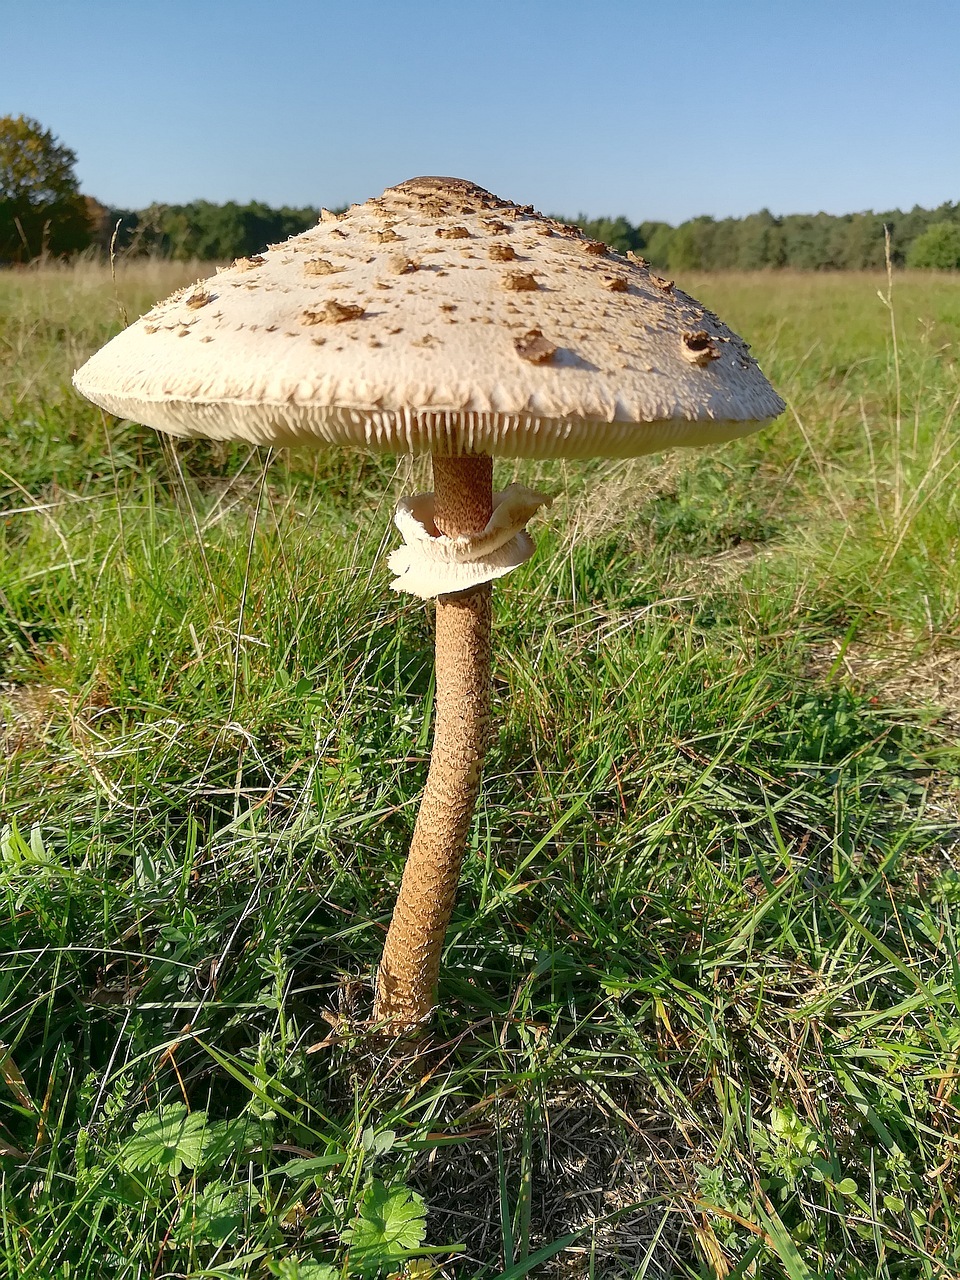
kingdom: Fungi
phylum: Basidiomycota
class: Agaricomycetes
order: Agaricales
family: Agaricaceae
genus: Macrolepiota
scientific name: Macrolepiota procera
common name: Parasol
